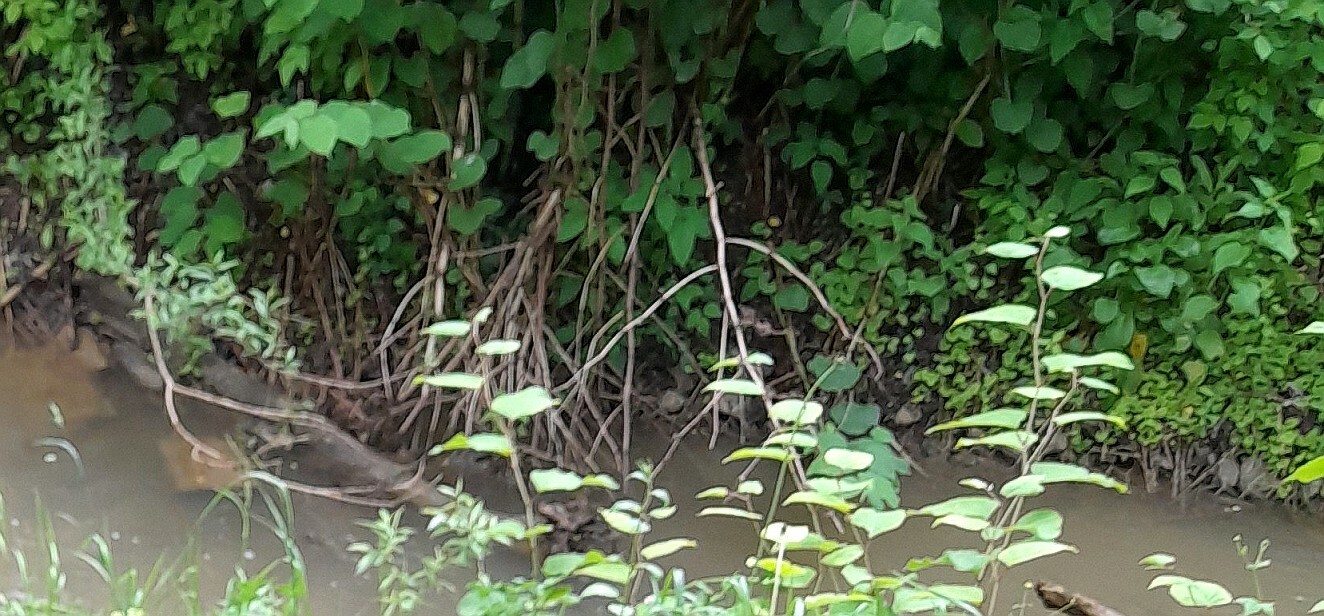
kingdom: Plantae
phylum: Tracheophyta
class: Magnoliopsida
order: Caryophyllales
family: Polygonaceae
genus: Reynoutria
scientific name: Reynoutria bohemica
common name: Bohemian knotweed
